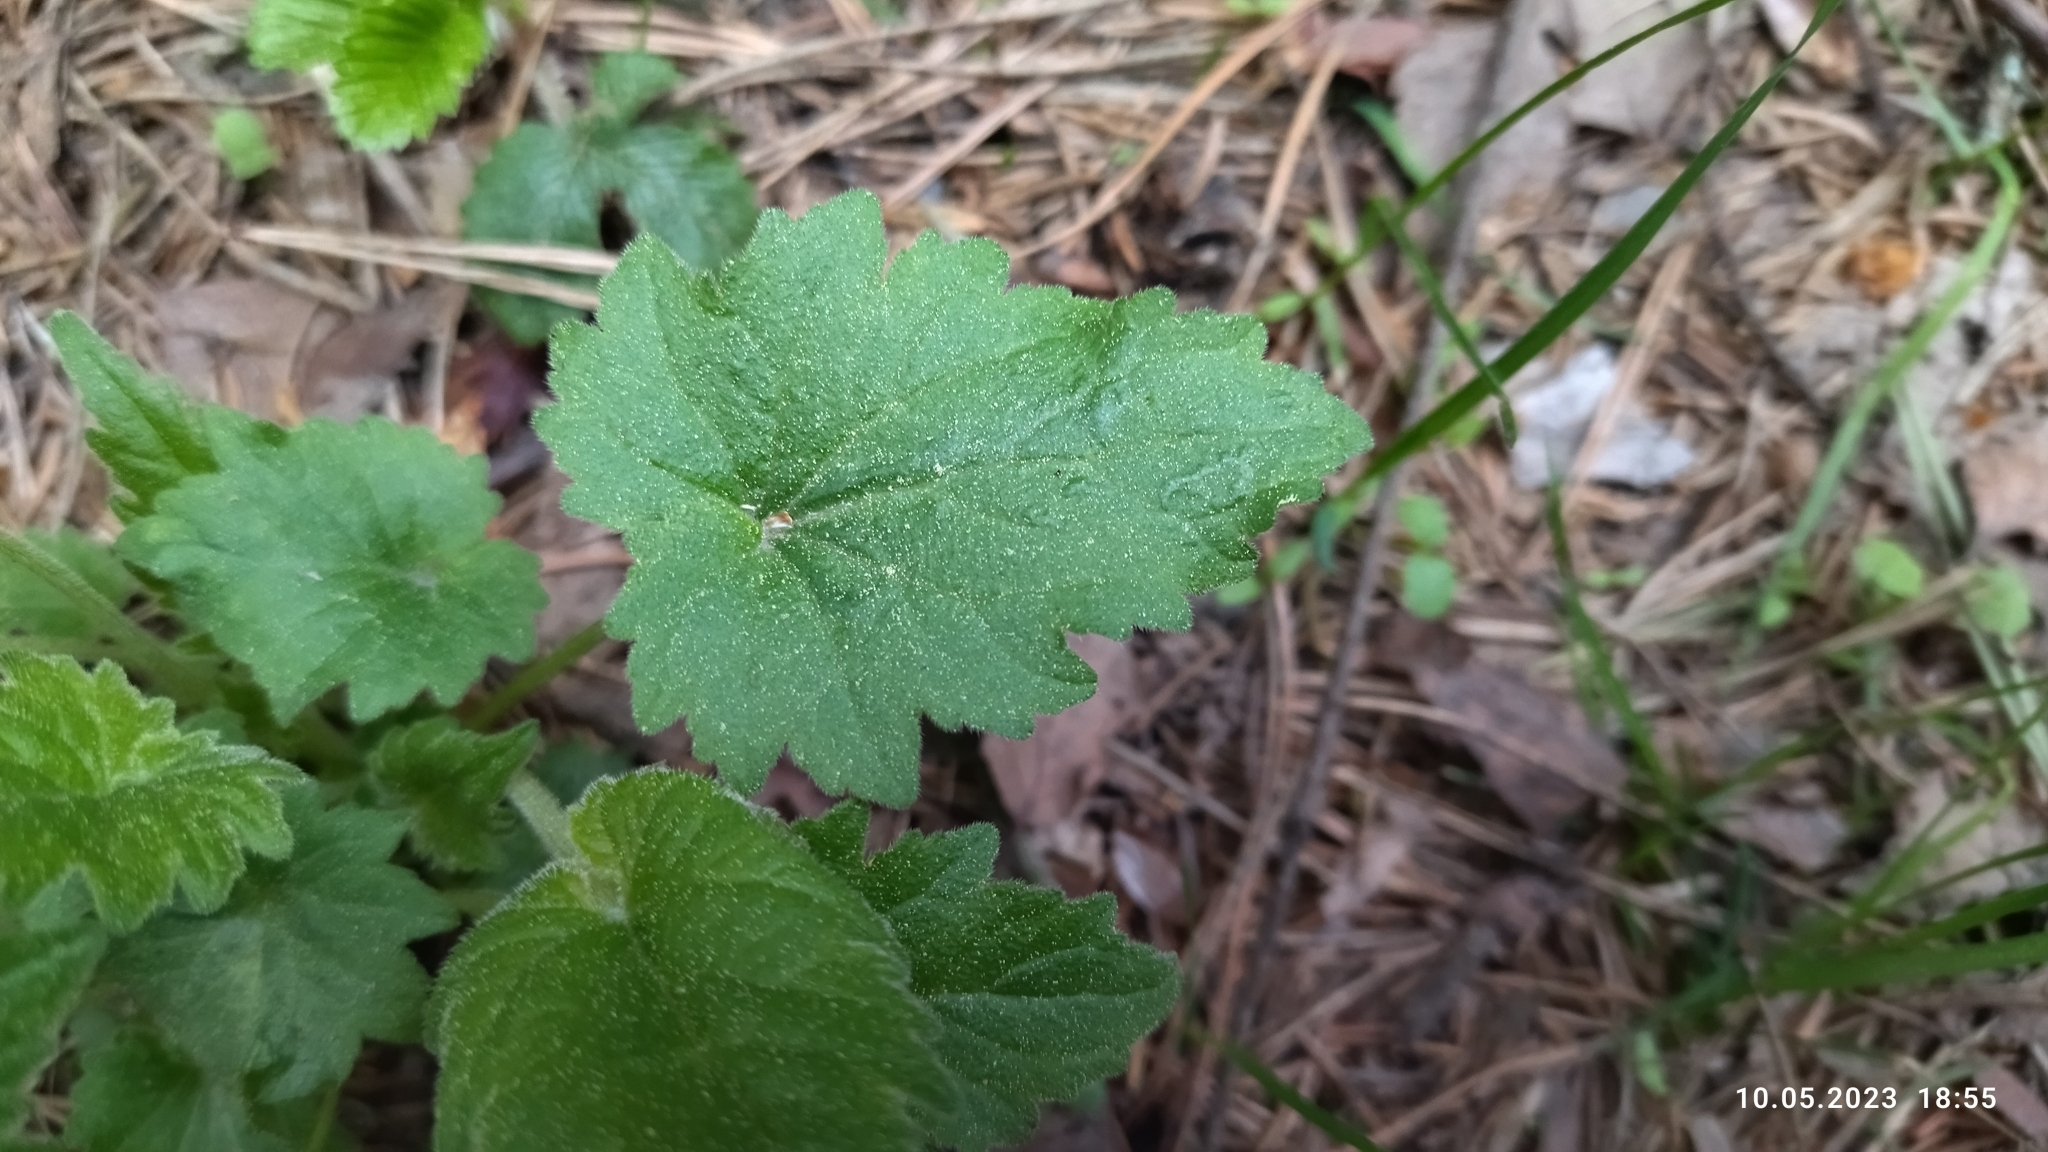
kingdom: Plantae
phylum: Tracheophyta
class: Magnoliopsida
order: Asterales
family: Campanulaceae
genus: Campanula
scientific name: Campanula trachelium
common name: Nettle-leaved bellflower
